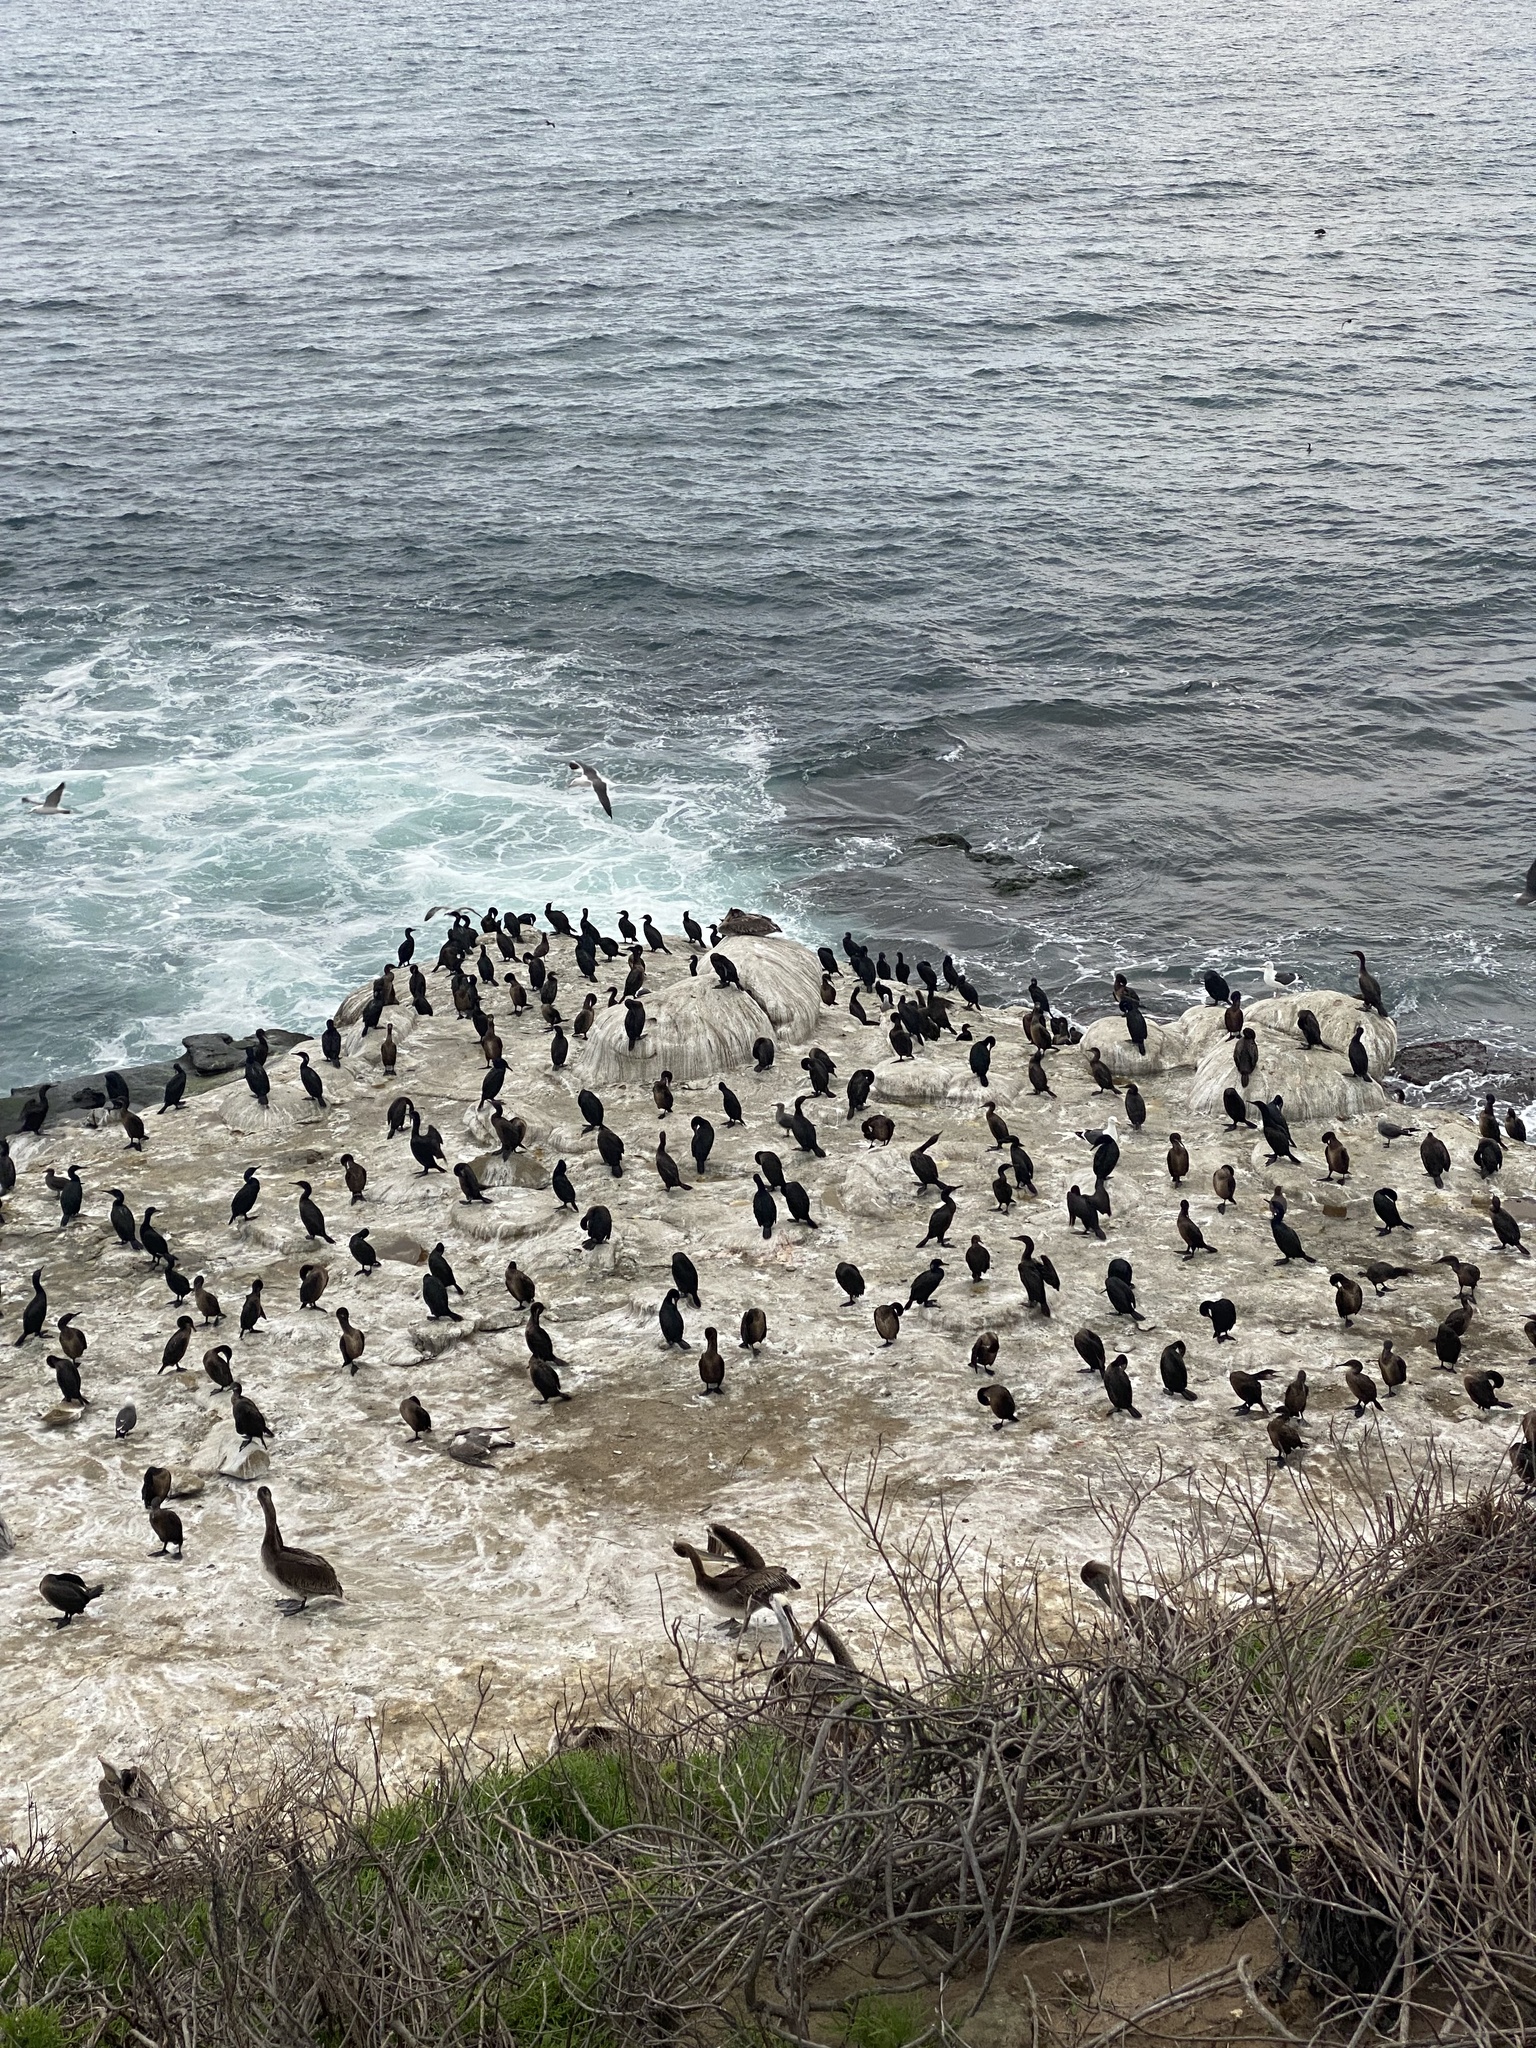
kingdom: Animalia
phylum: Chordata
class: Aves
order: Suliformes
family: Phalacrocoracidae
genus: Urile
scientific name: Urile penicillatus
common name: Brandt's cormorant
